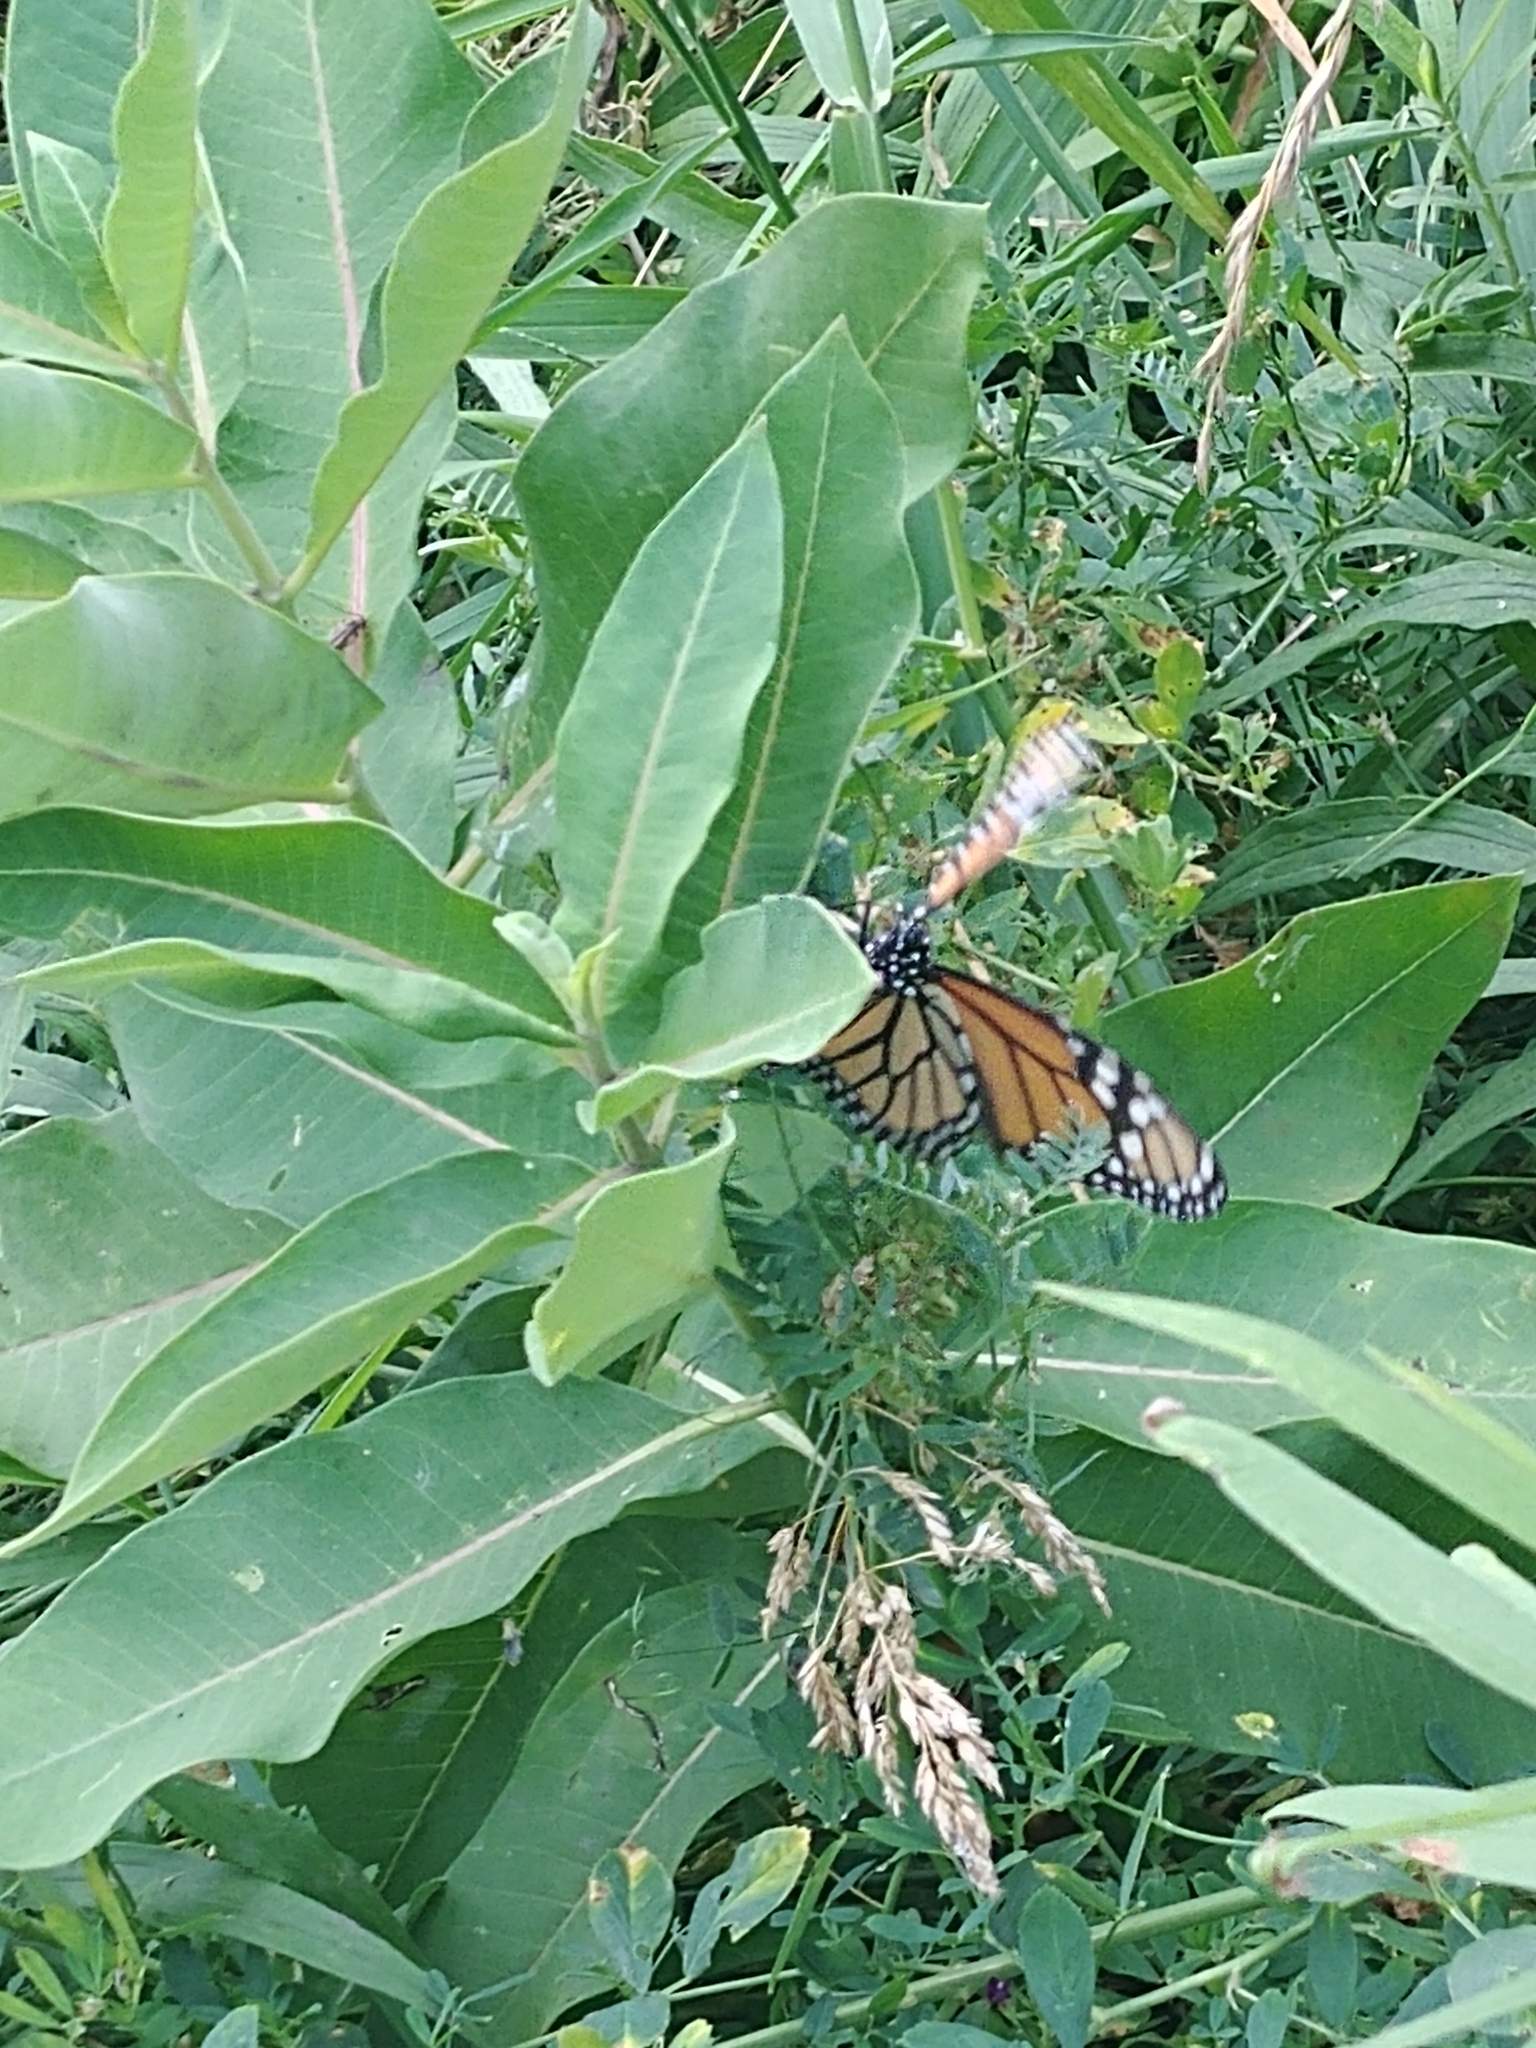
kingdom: Animalia
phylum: Arthropoda
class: Insecta
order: Lepidoptera
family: Nymphalidae
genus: Danaus
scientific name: Danaus plexippus
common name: Monarch
